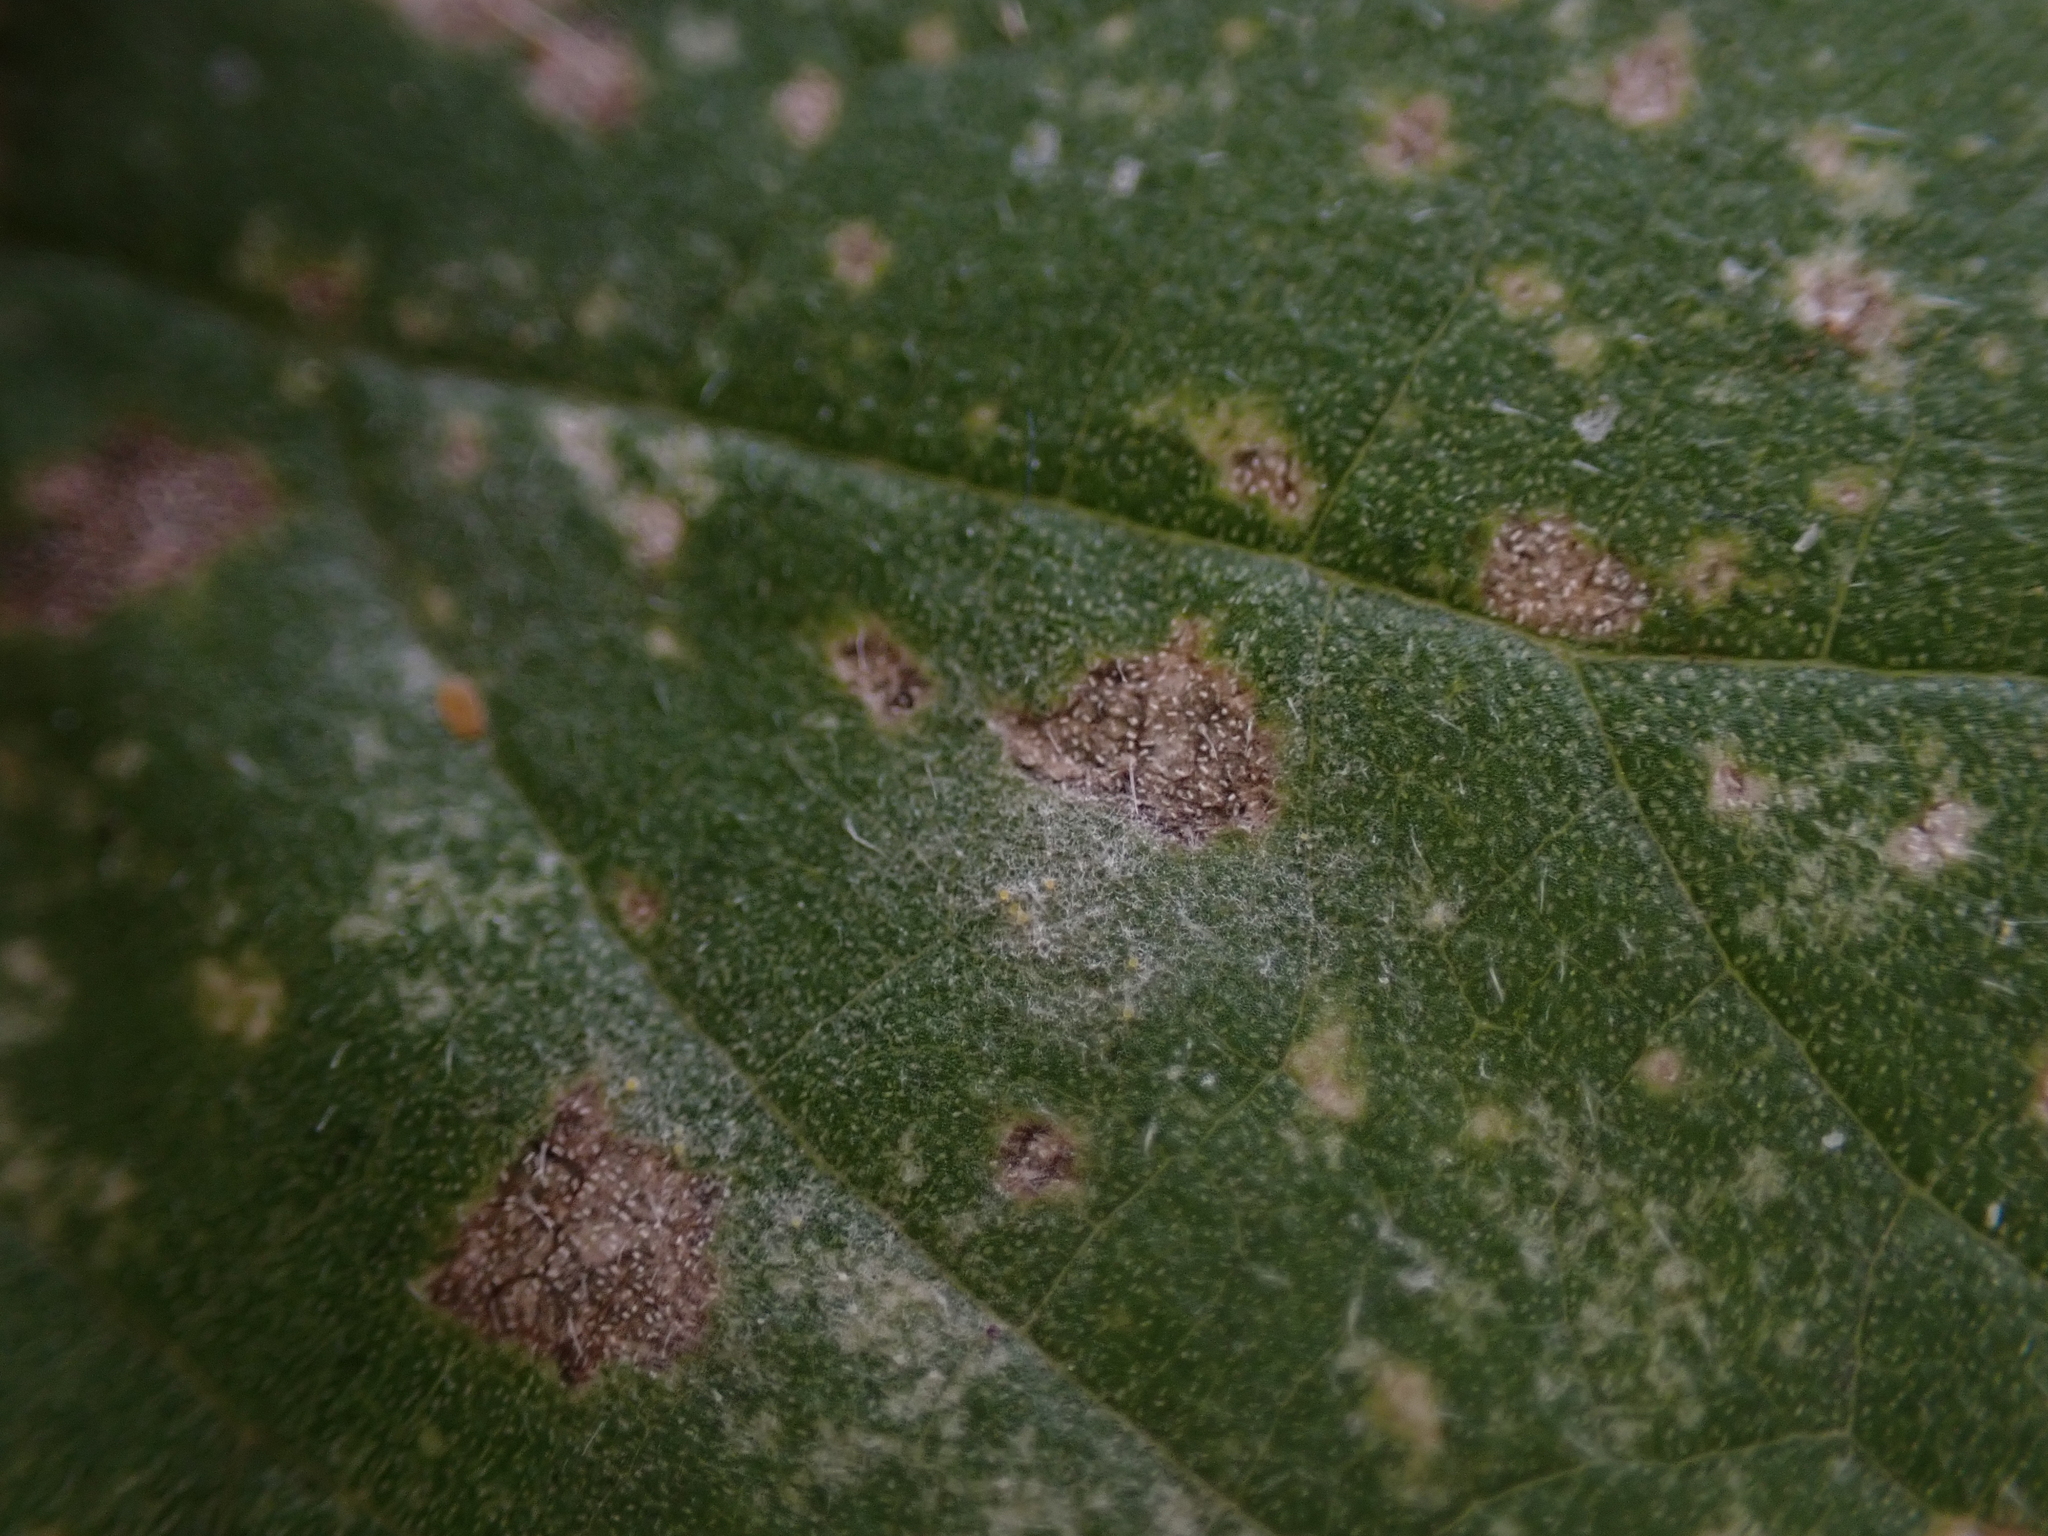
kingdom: Fungi
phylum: Ascomycota
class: Leotiomycetes
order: Helotiales
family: Erysiphaceae
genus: Erysiphe
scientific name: Erysiphe urticae
